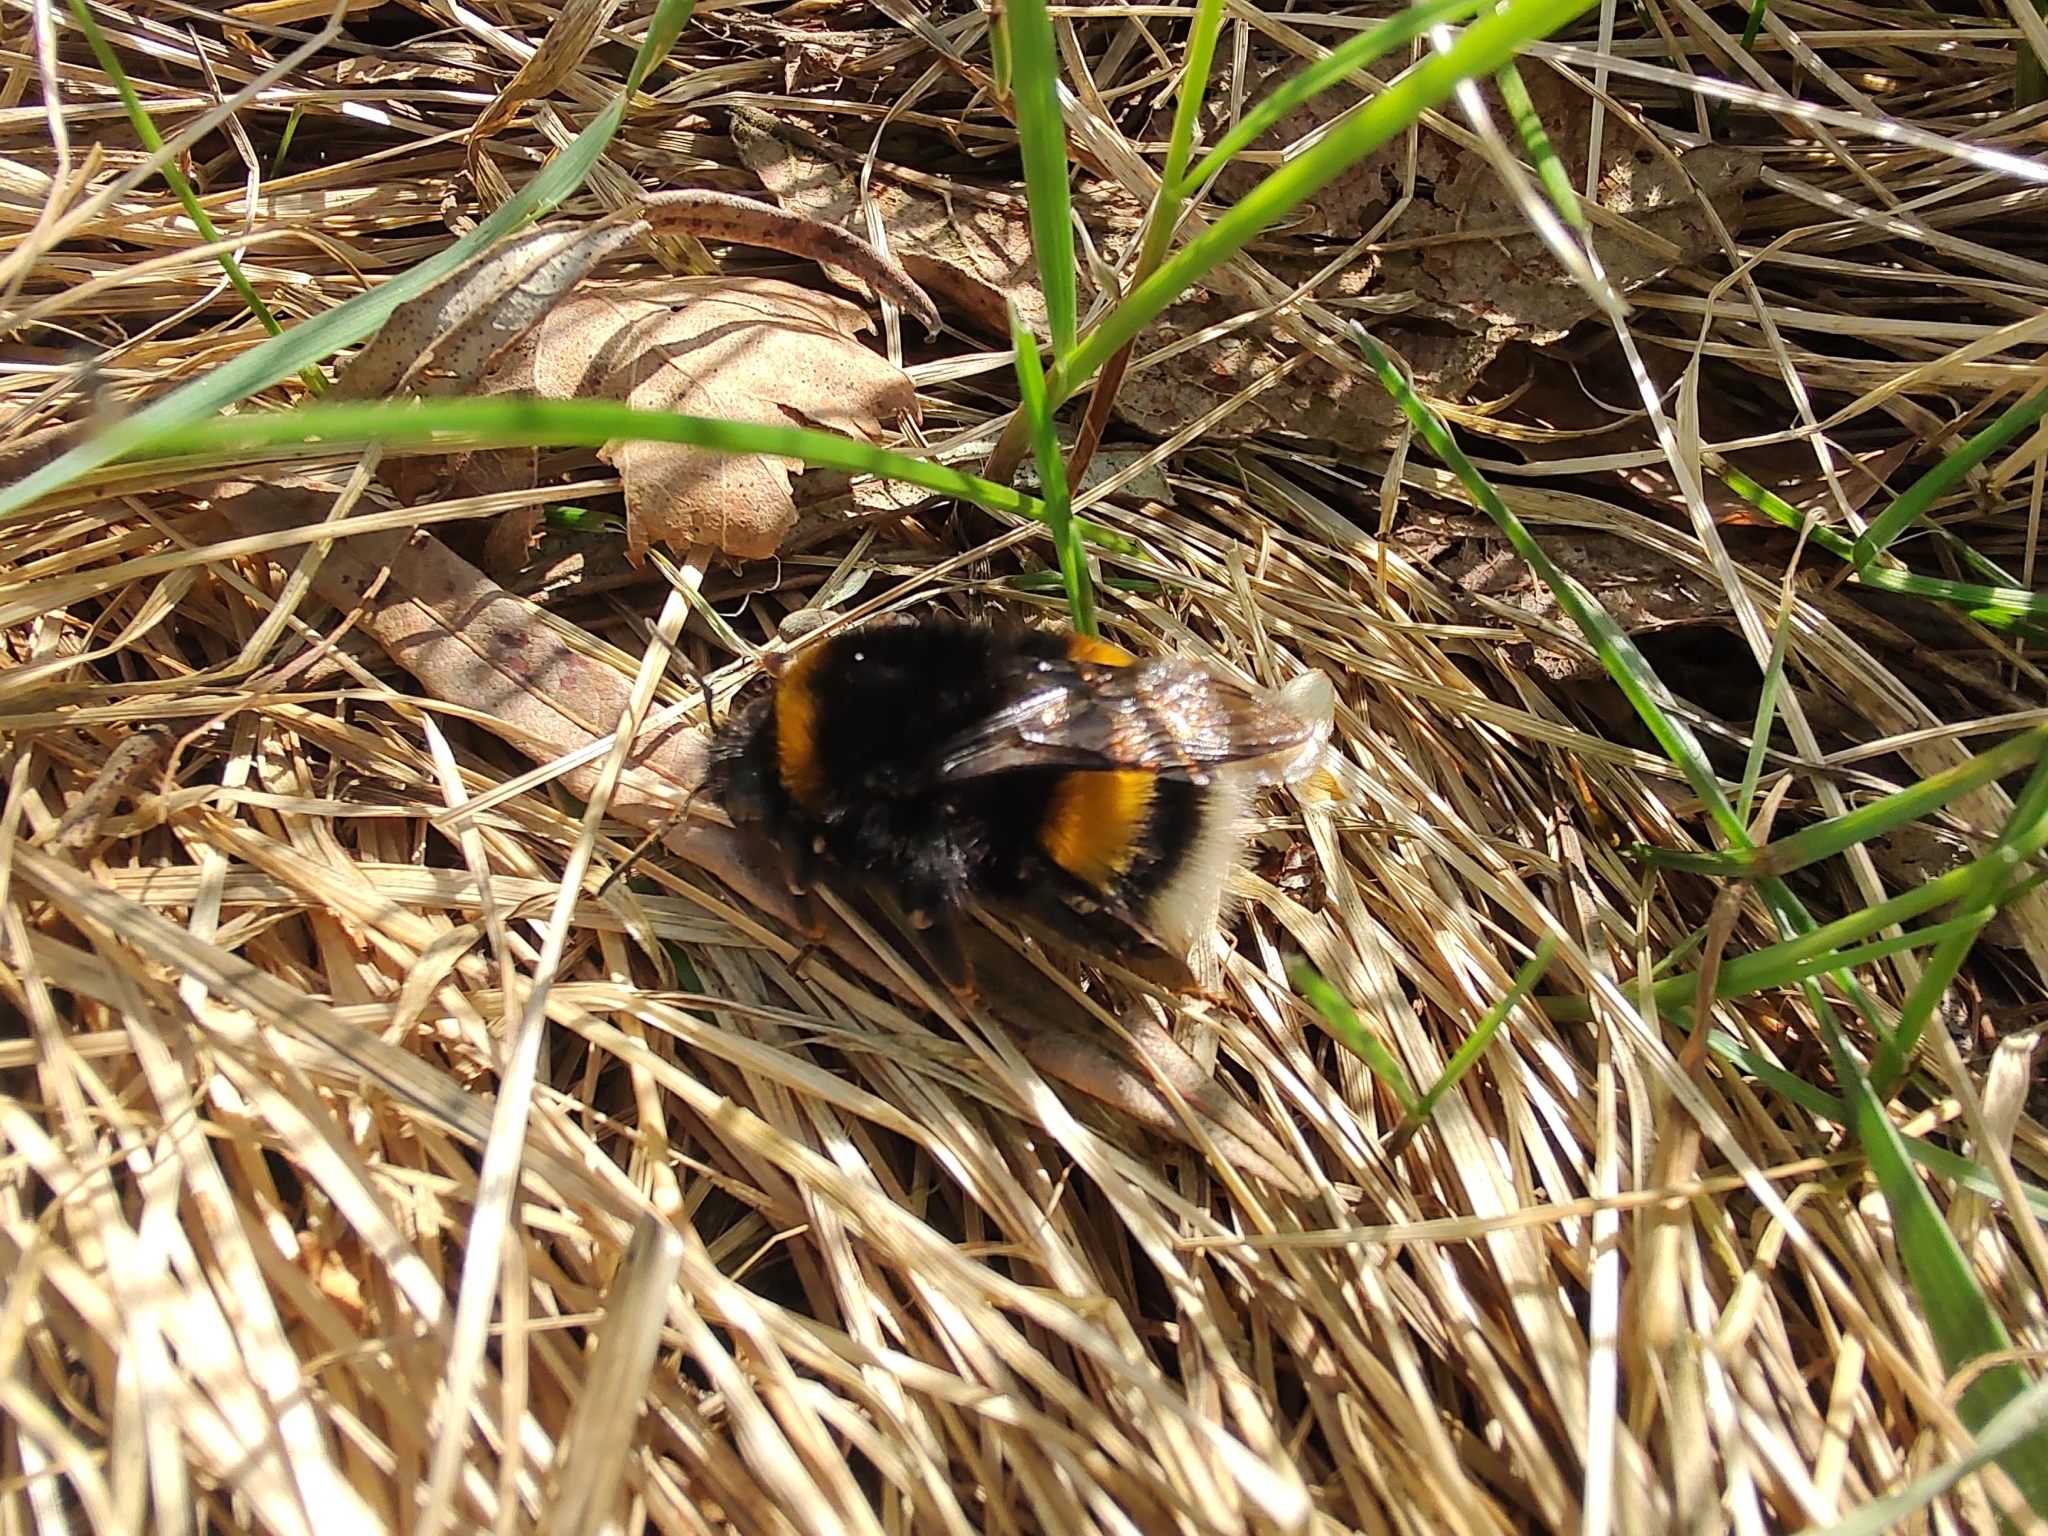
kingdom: Animalia
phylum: Arthropoda
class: Insecta
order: Hymenoptera
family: Apidae
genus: Bombus
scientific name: Bombus terrestris
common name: Buff-tailed bumblebee
